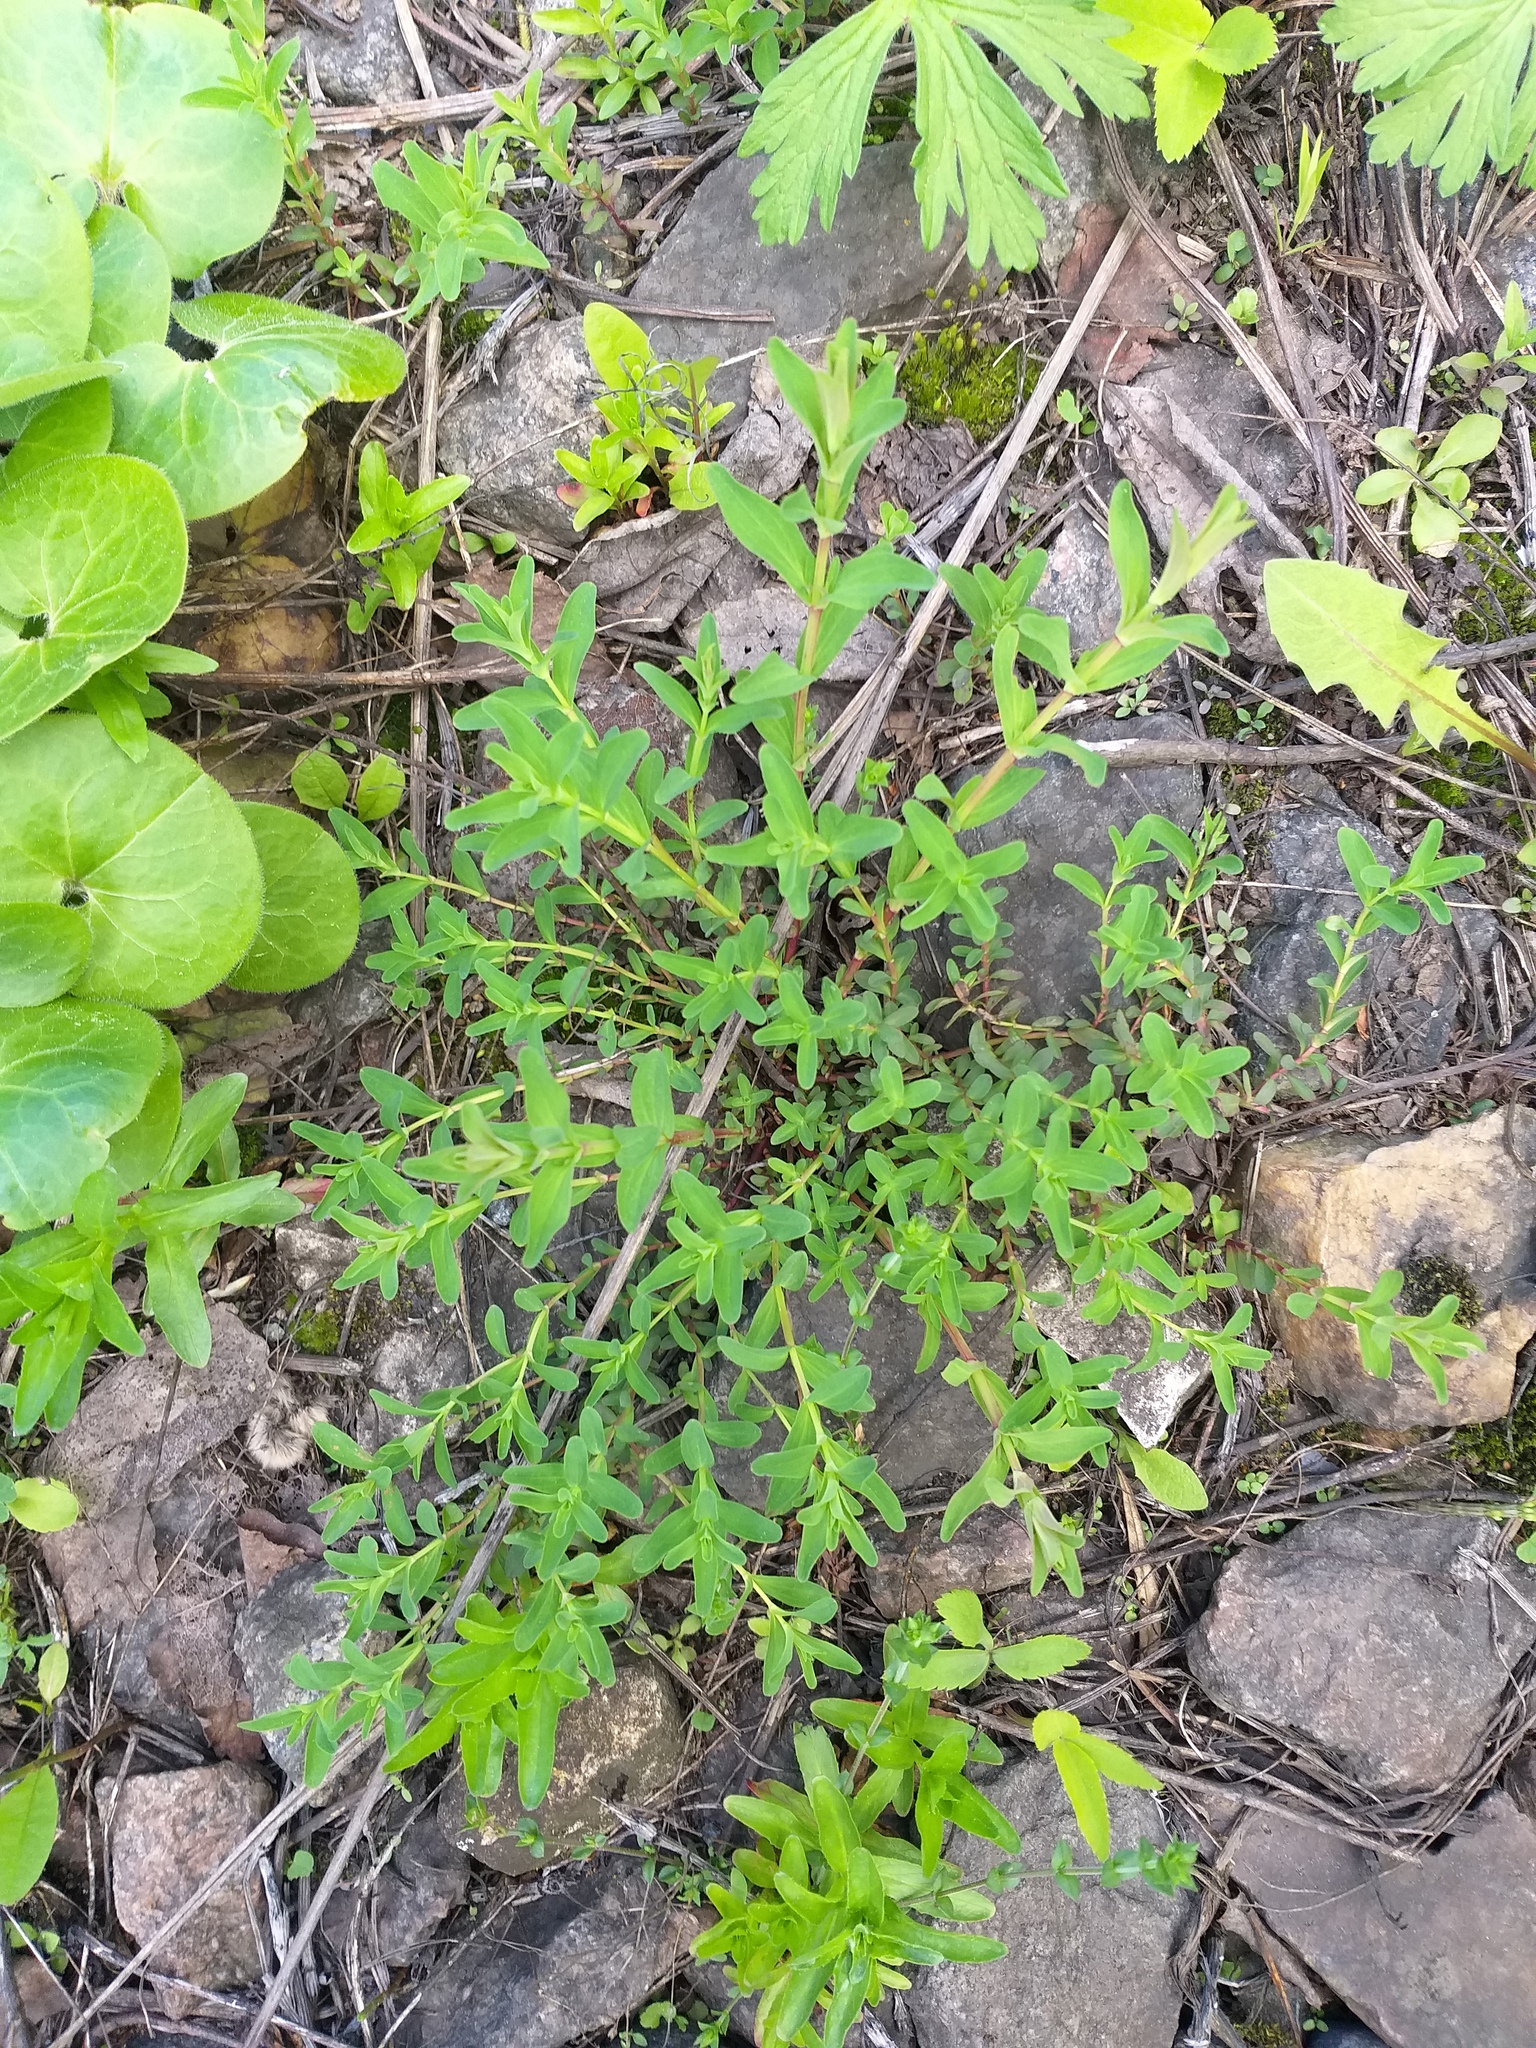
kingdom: Plantae
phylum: Tracheophyta
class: Magnoliopsida
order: Malpighiales
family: Hypericaceae
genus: Hypericum
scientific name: Hypericum perforatum
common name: Common st. johnswort
